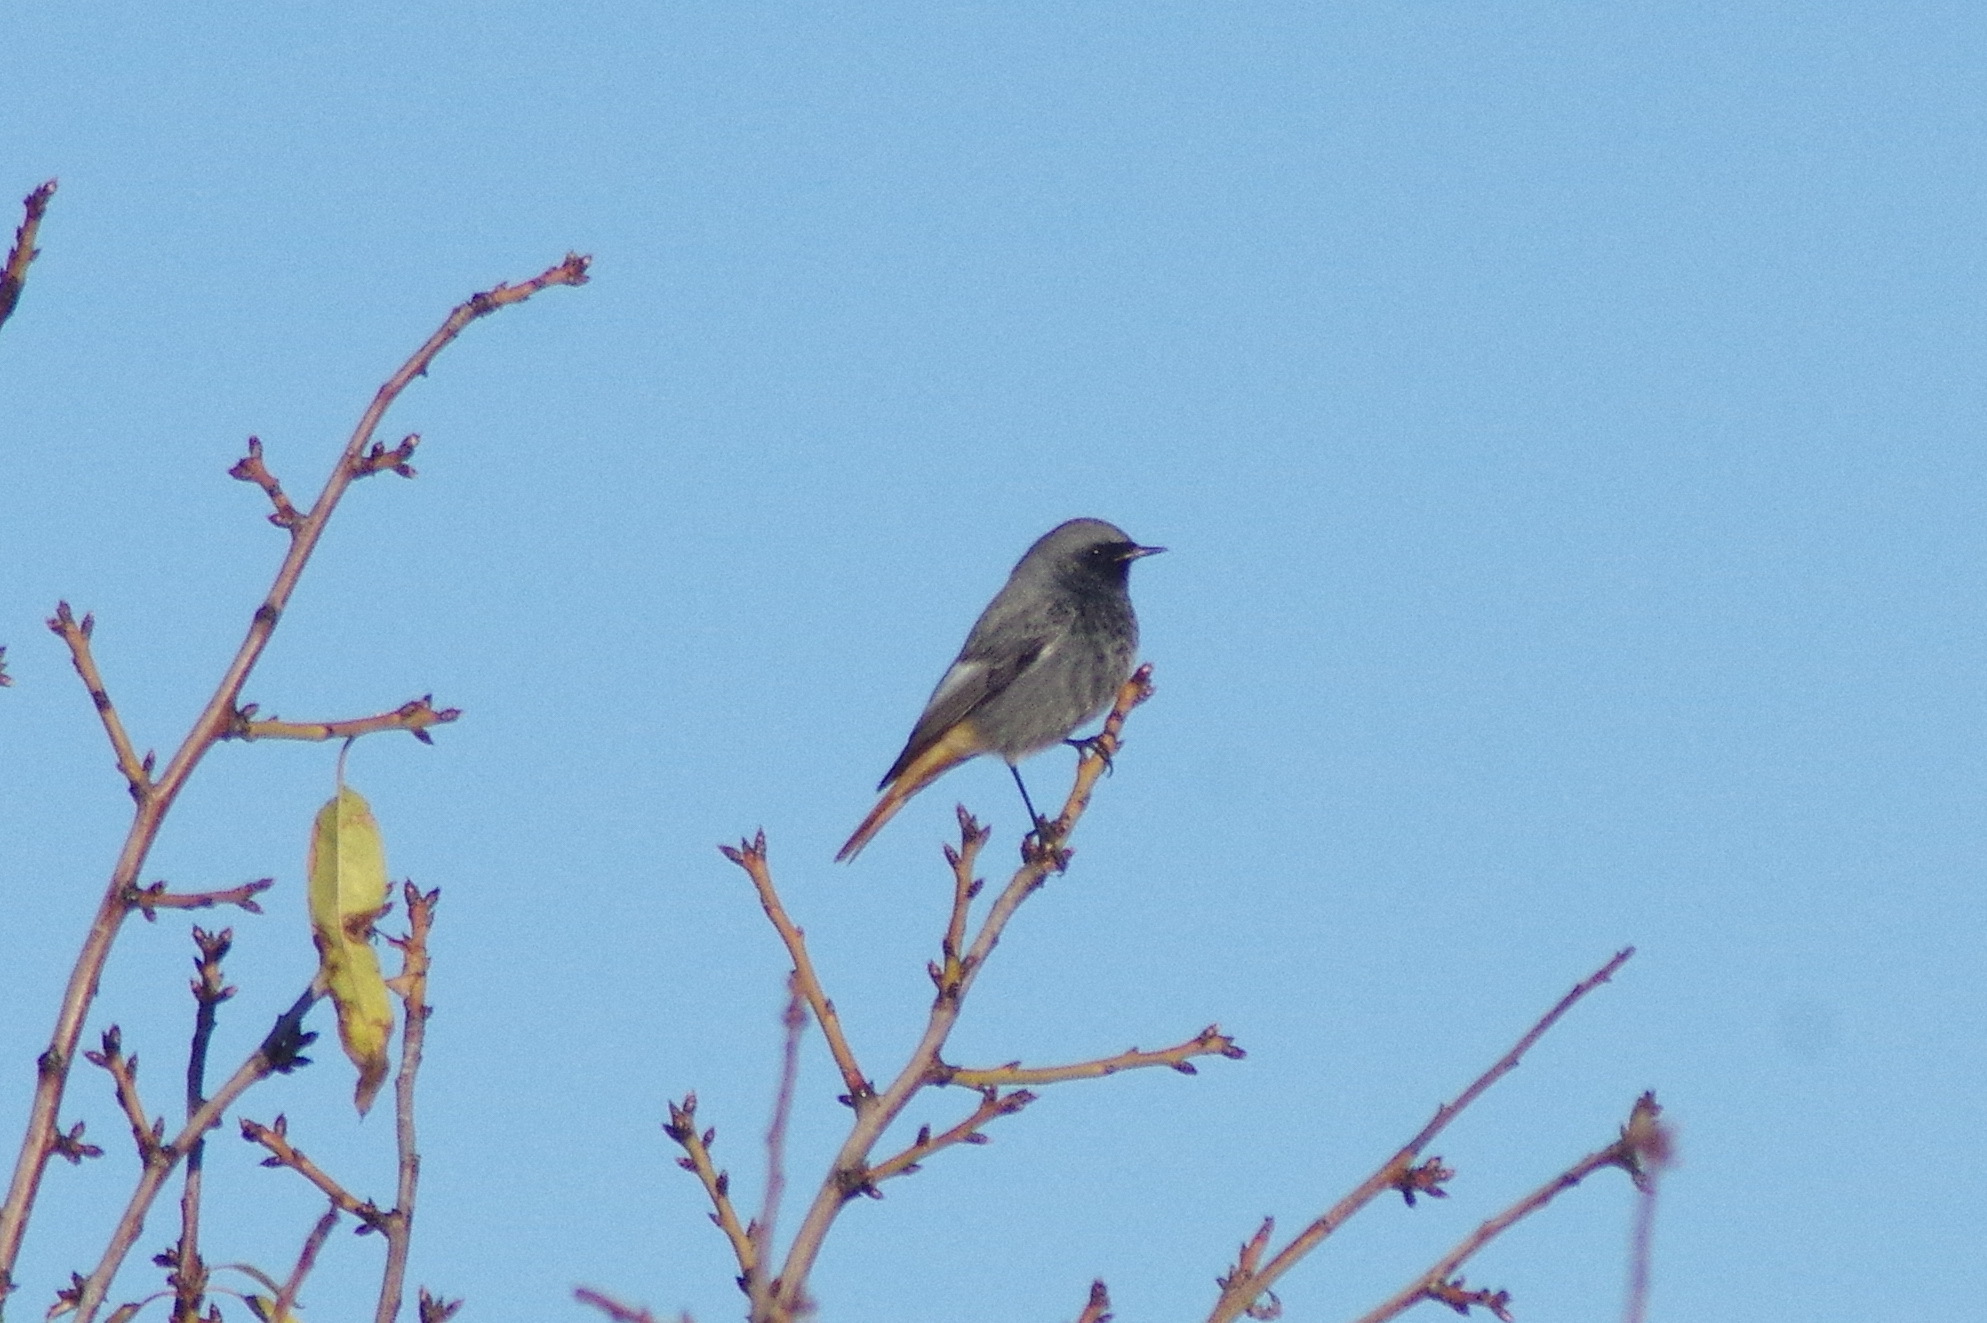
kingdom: Animalia
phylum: Chordata
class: Aves
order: Passeriformes
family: Muscicapidae
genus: Phoenicurus
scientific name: Phoenicurus ochruros
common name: Black redstart
